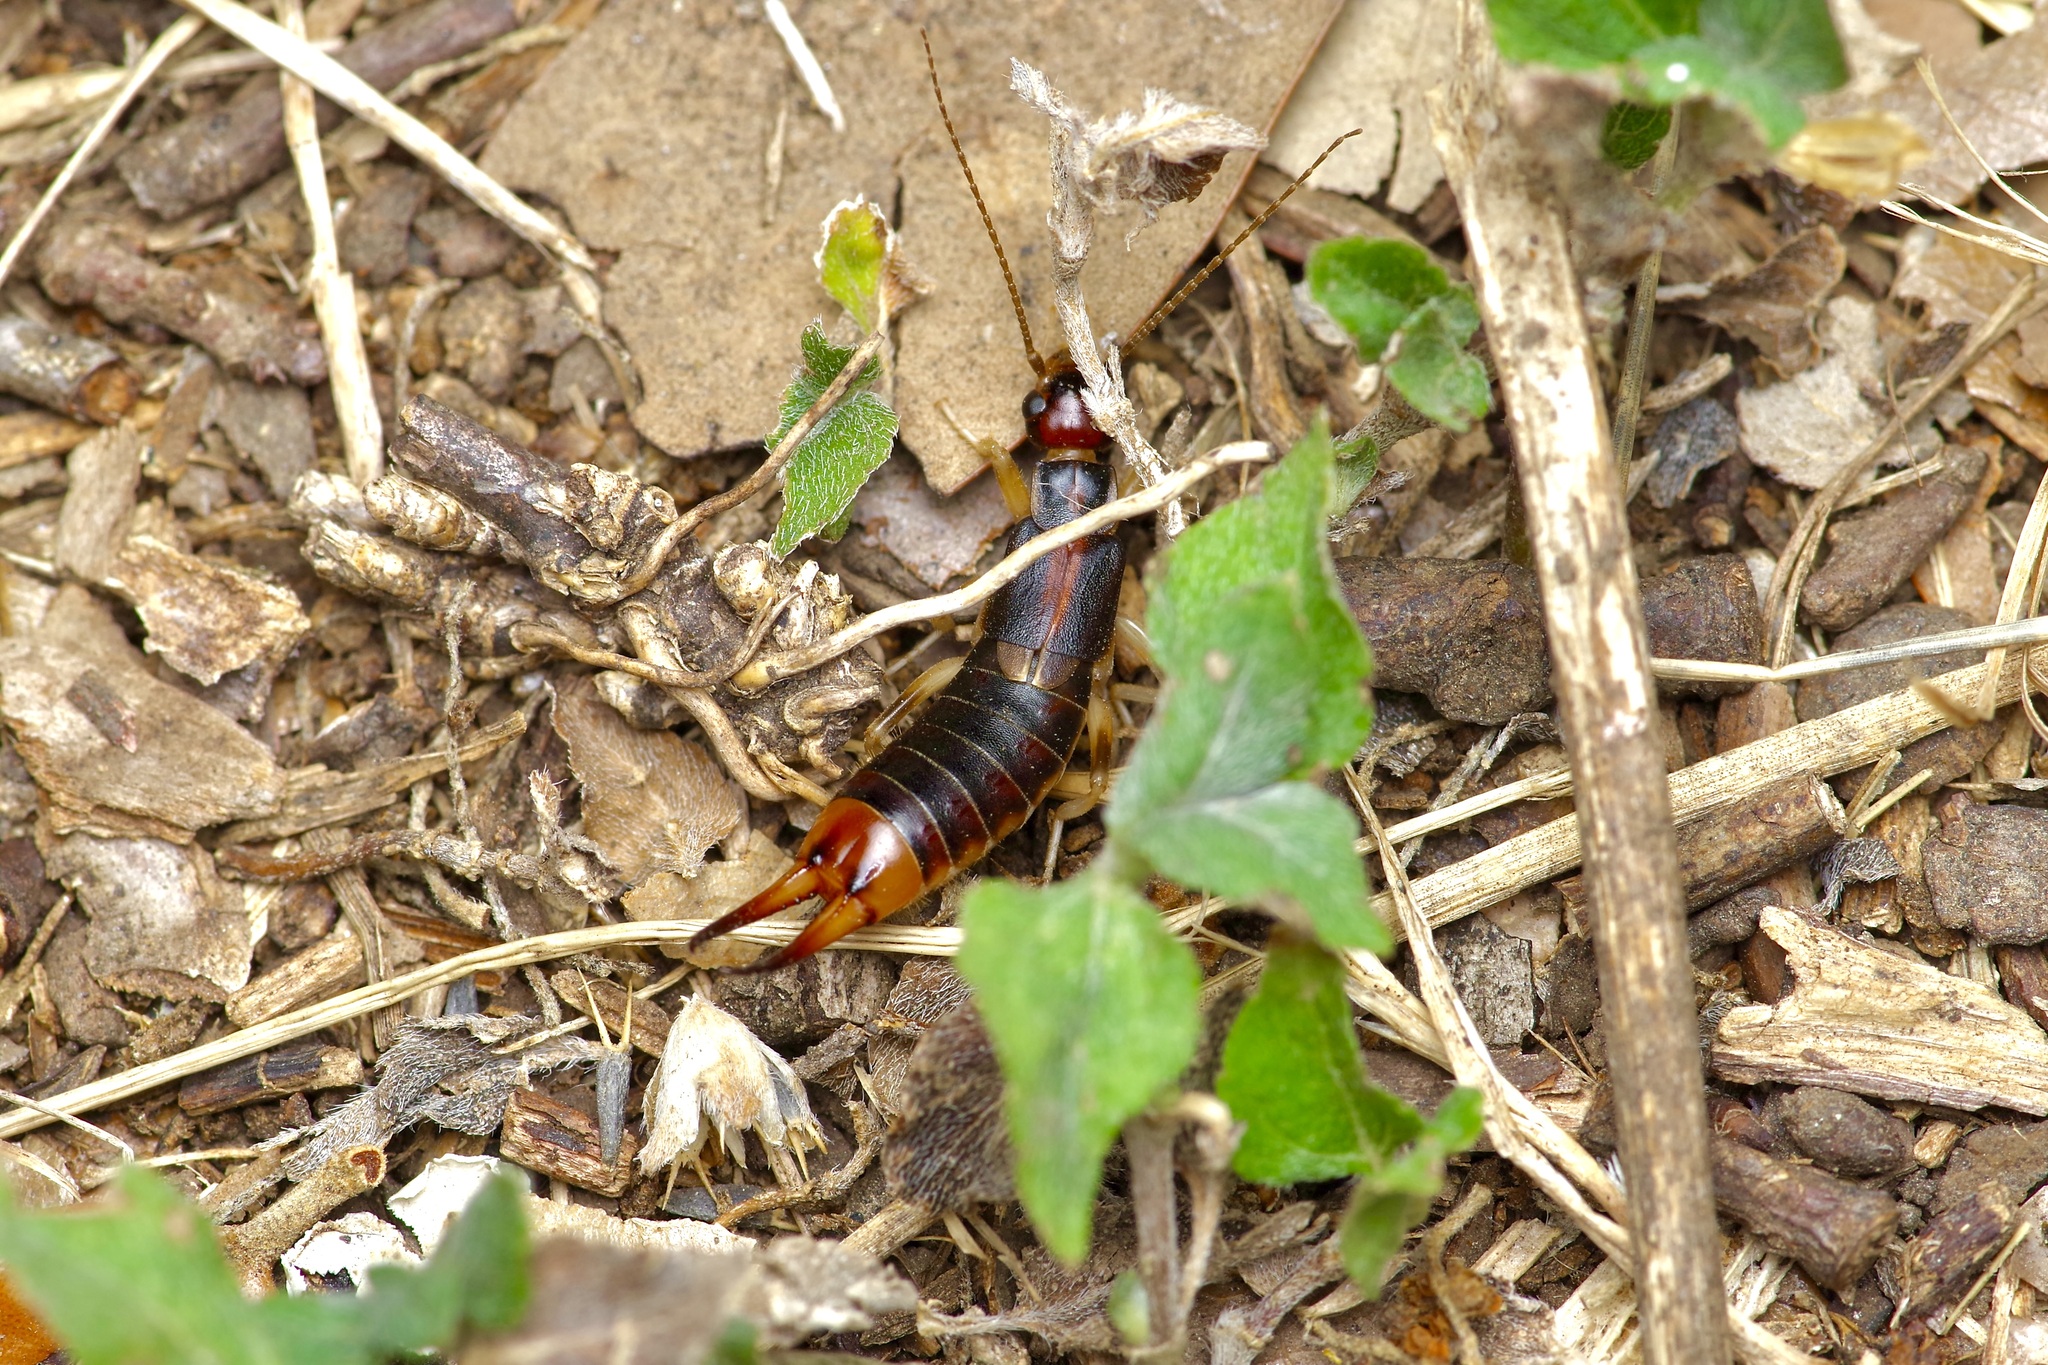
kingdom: Animalia
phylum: Arthropoda
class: Insecta
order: Dermaptera
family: Labiduridae
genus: Labidura
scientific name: Labidura riparia
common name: Striped earwig
